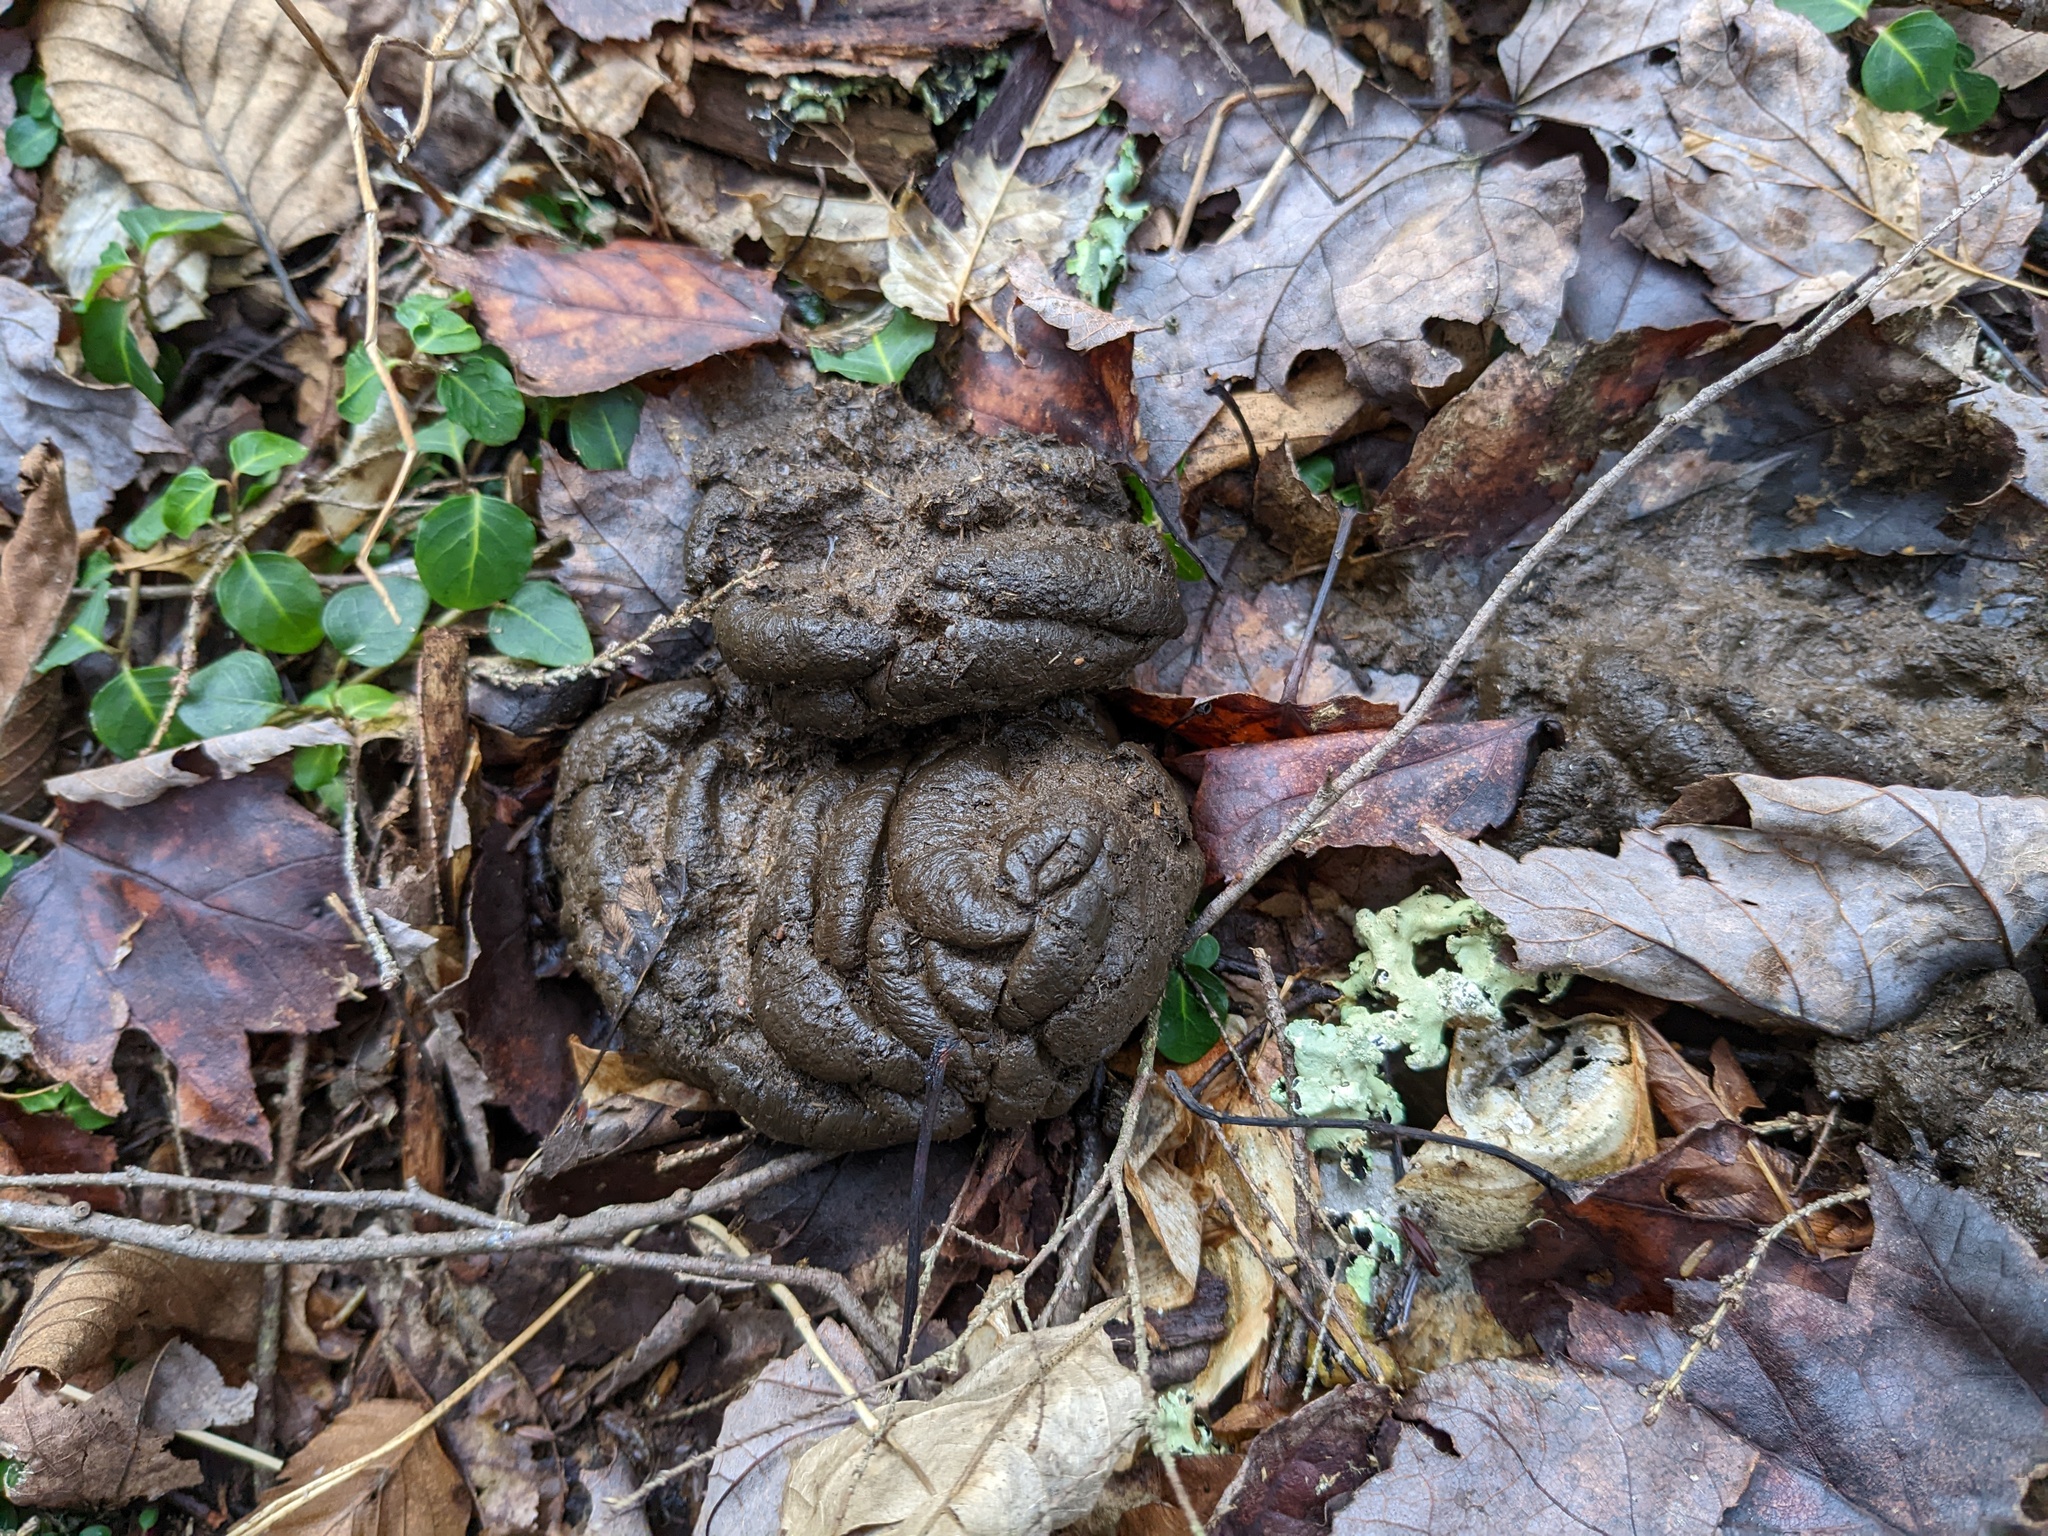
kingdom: Animalia
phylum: Chordata
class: Mammalia
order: Artiodactyla
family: Cervidae
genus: Odocoileus
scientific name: Odocoileus virginianus
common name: White-tailed deer
